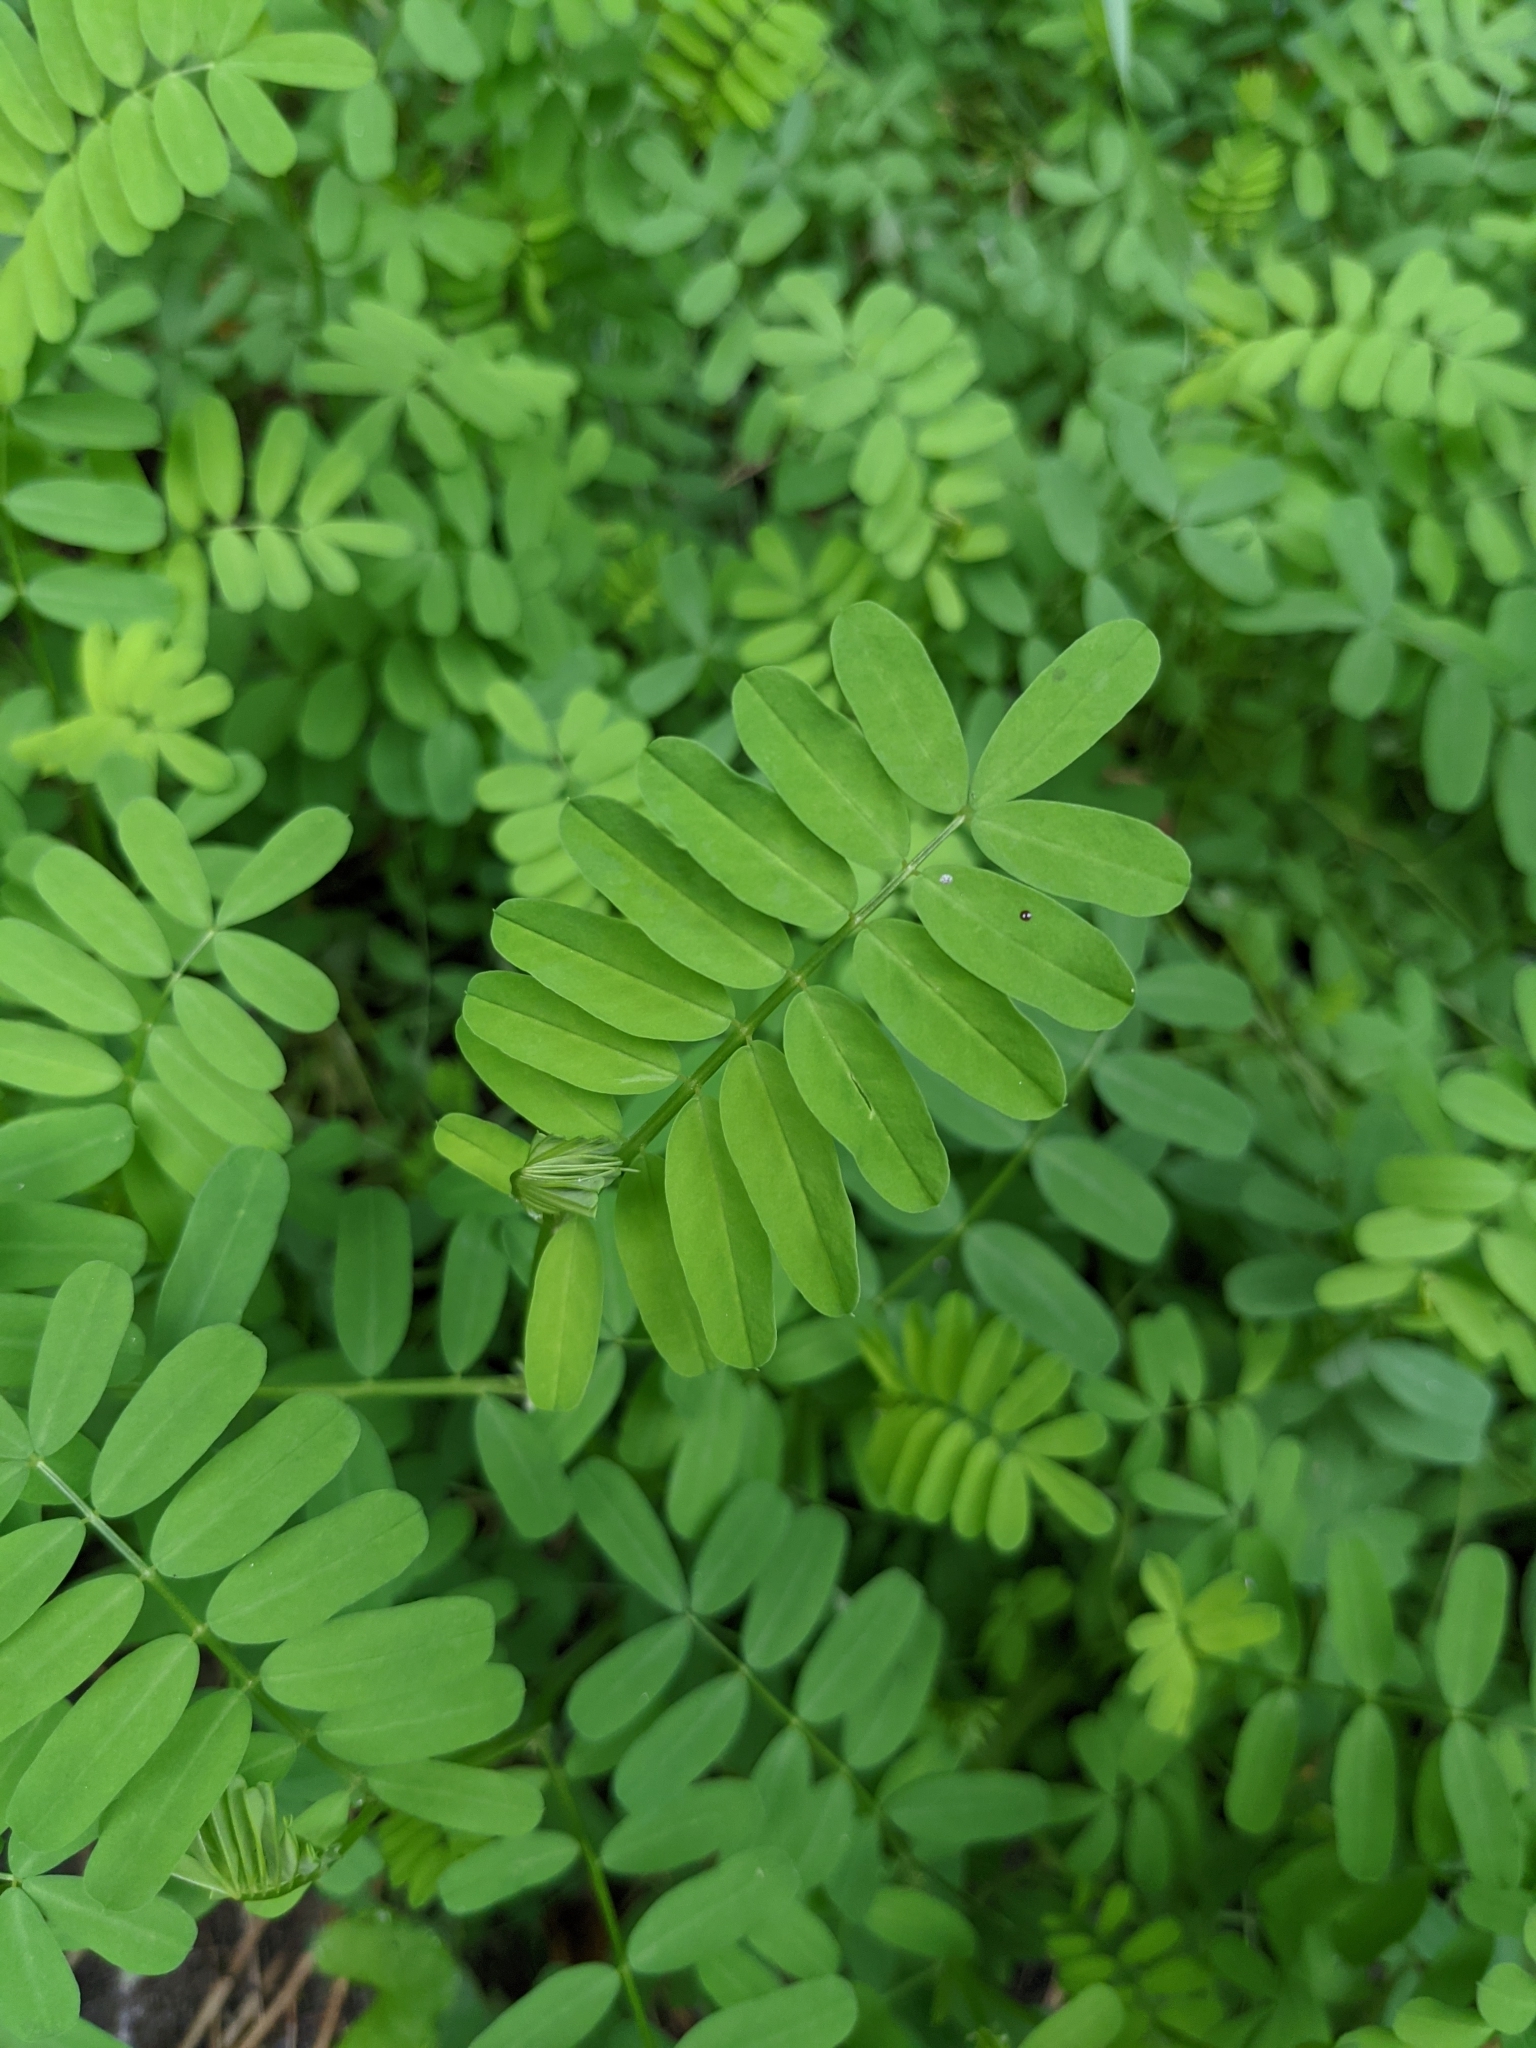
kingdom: Plantae
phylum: Tracheophyta
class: Magnoliopsida
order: Fabales
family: Fabaceae
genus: Coronilla
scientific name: Coronilla varia
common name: Crownvetch
